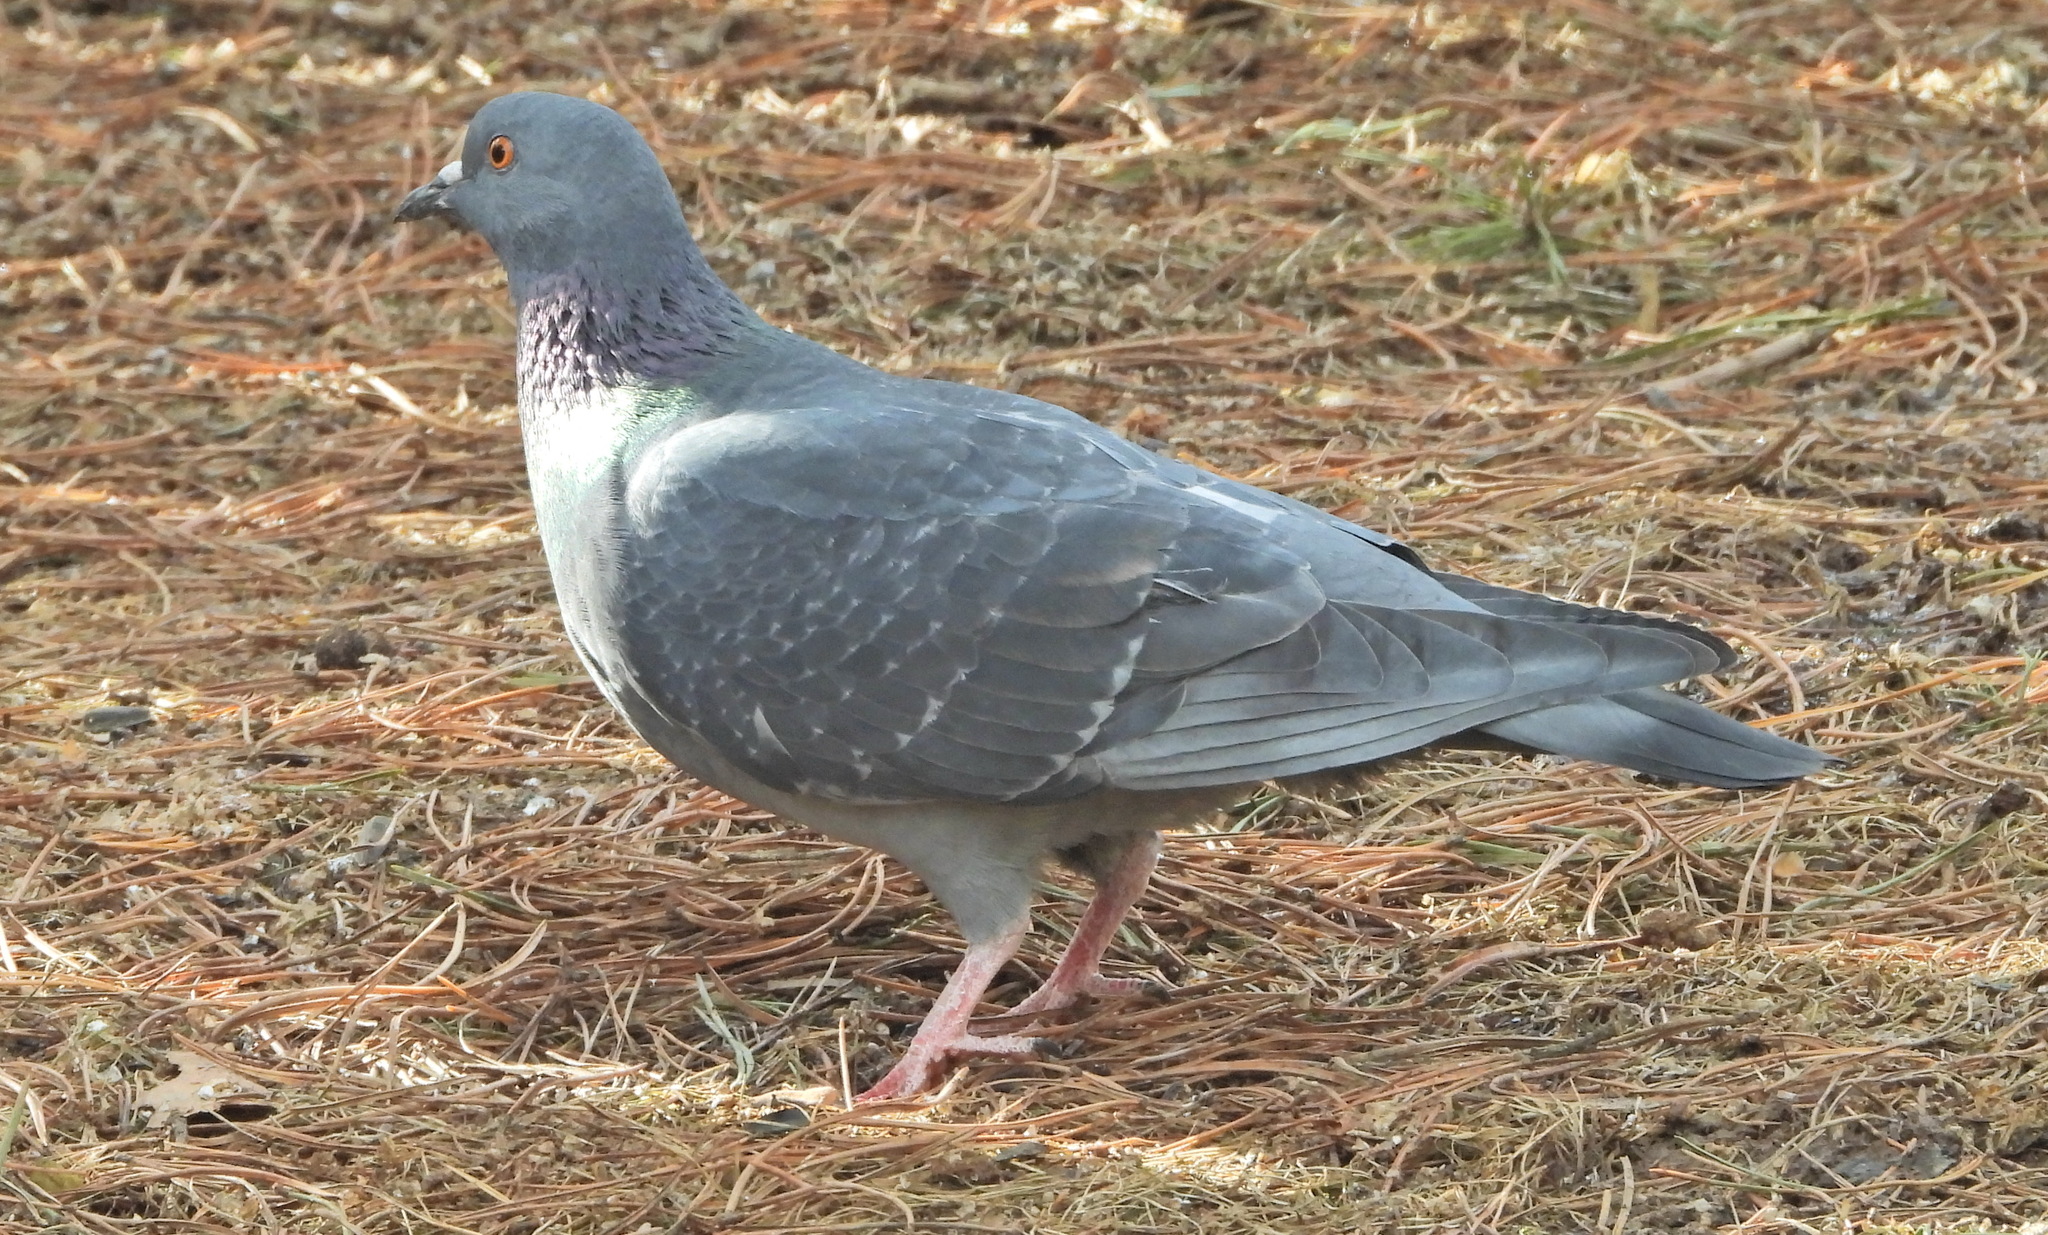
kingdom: Animalia
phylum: Chordata
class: Aves
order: Columbiformes
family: Columbidae
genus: Columba
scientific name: Columba livia
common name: Rock pigeon
